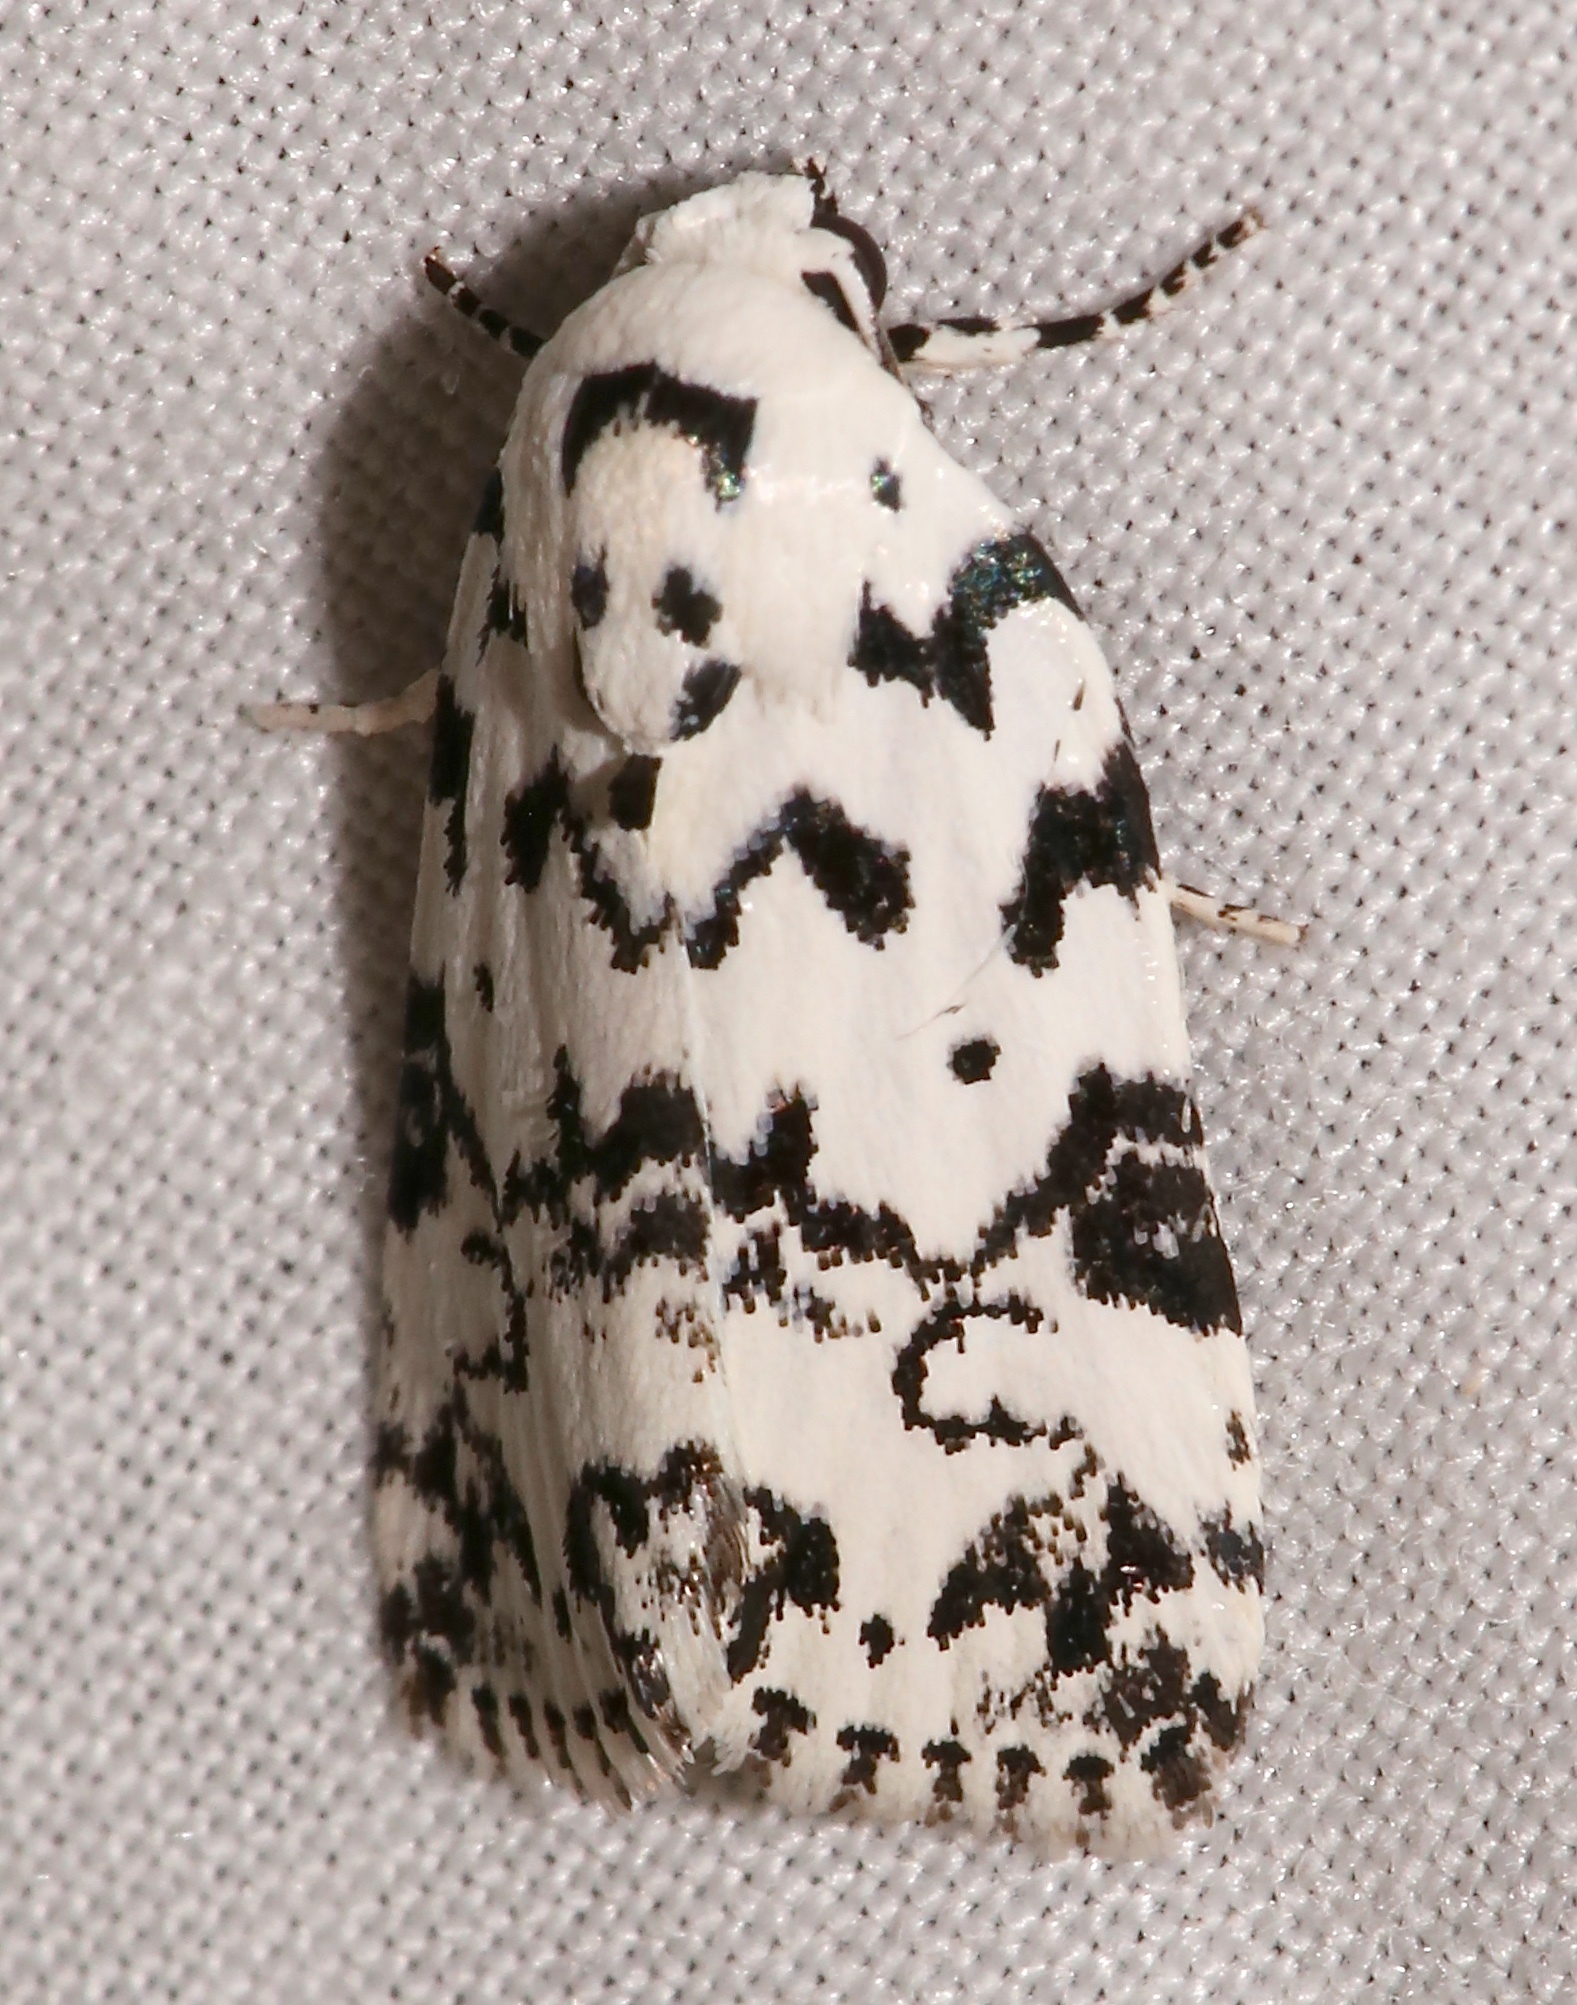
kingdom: Animalia
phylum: Arthropoda
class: Insecta
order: Lepidoptera
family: Noctuidae
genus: Polygrammate
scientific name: Polygrammate hebraeicum
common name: Hebrew moth
